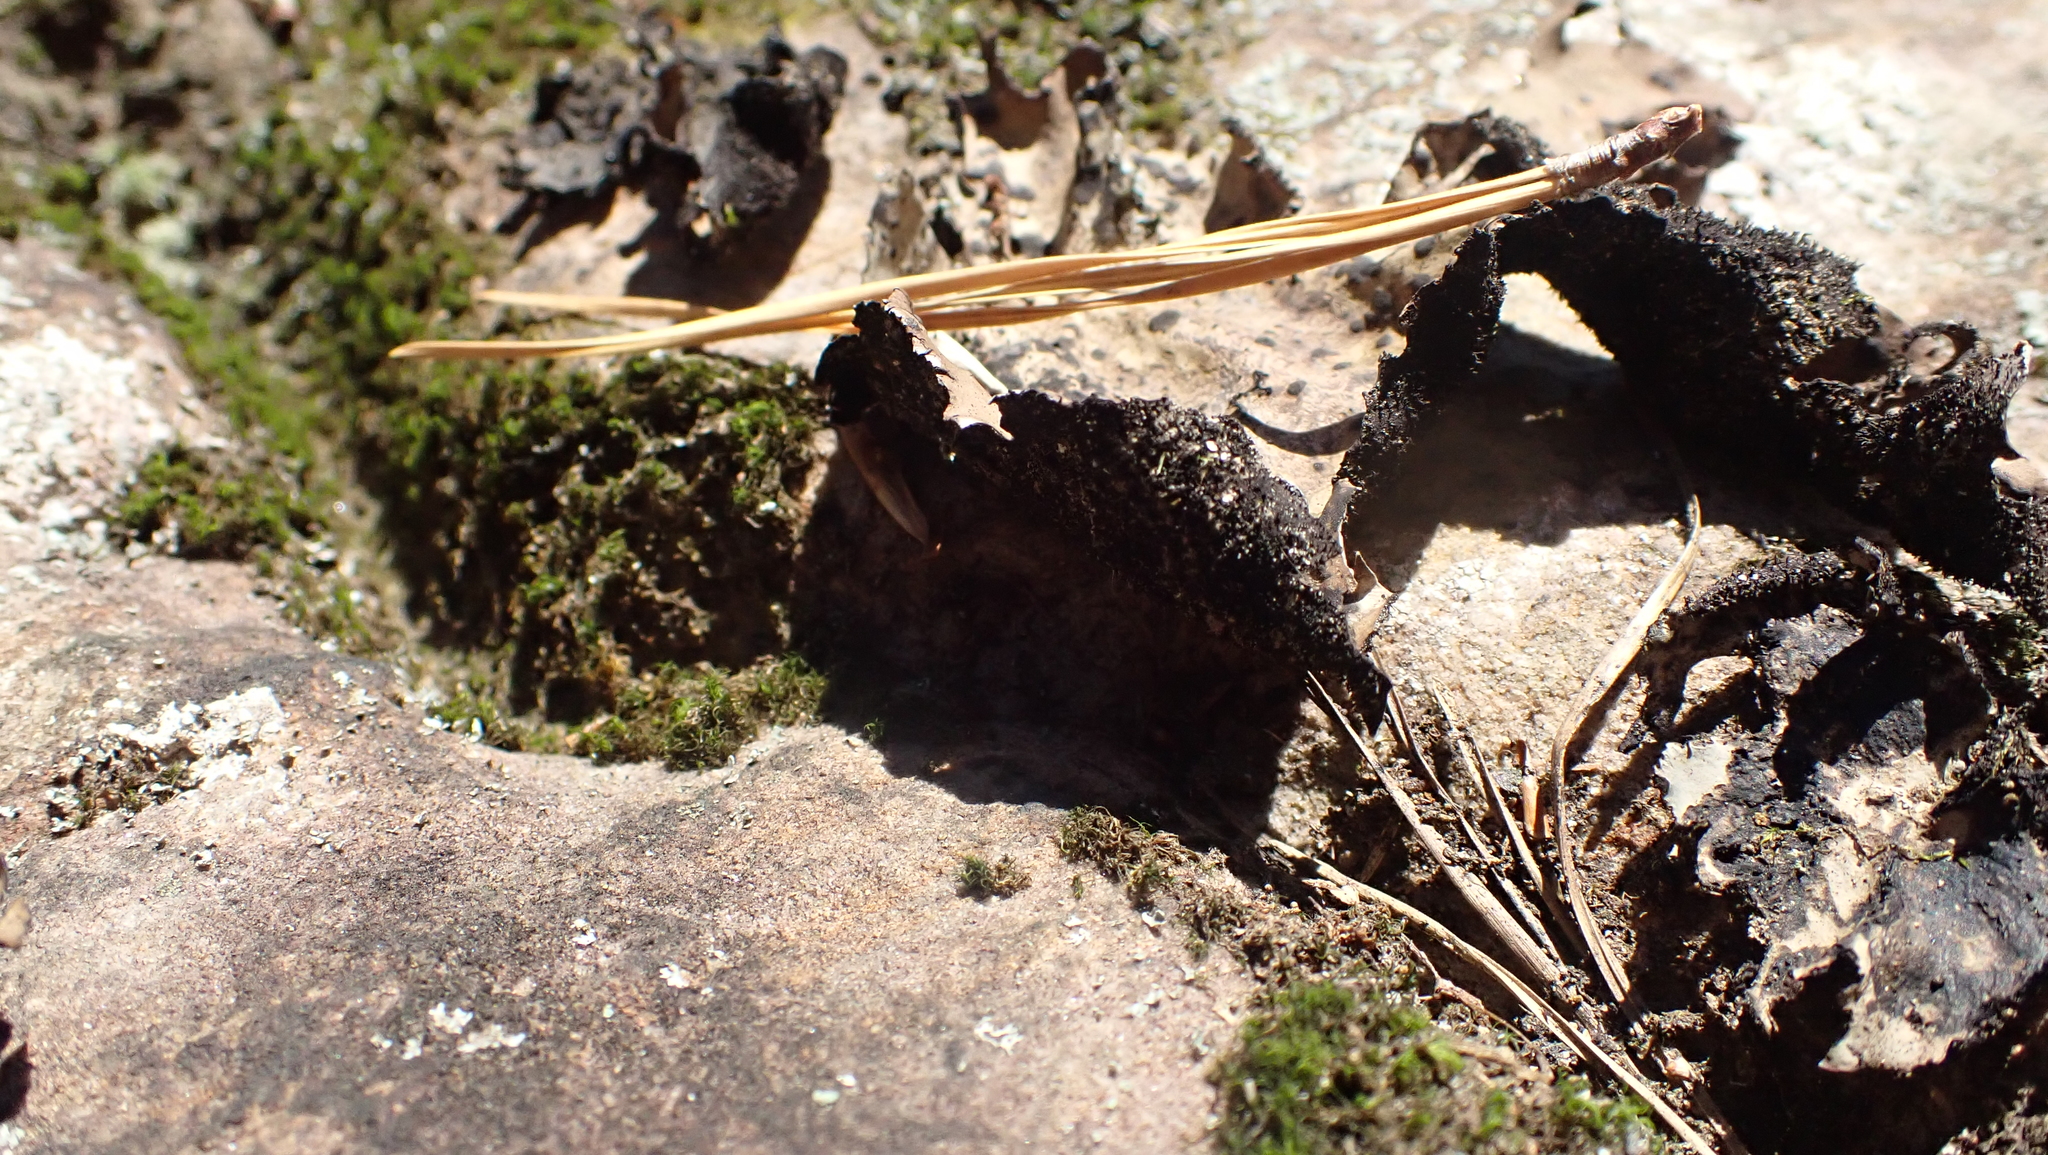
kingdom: Fungi
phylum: Ascomycota
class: Lecanoromycetes
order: Umbilicariales
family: Umbilicariaceae
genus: Umbilicaria
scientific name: Umbilicaria mammulata
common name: Smooth rock tripe
